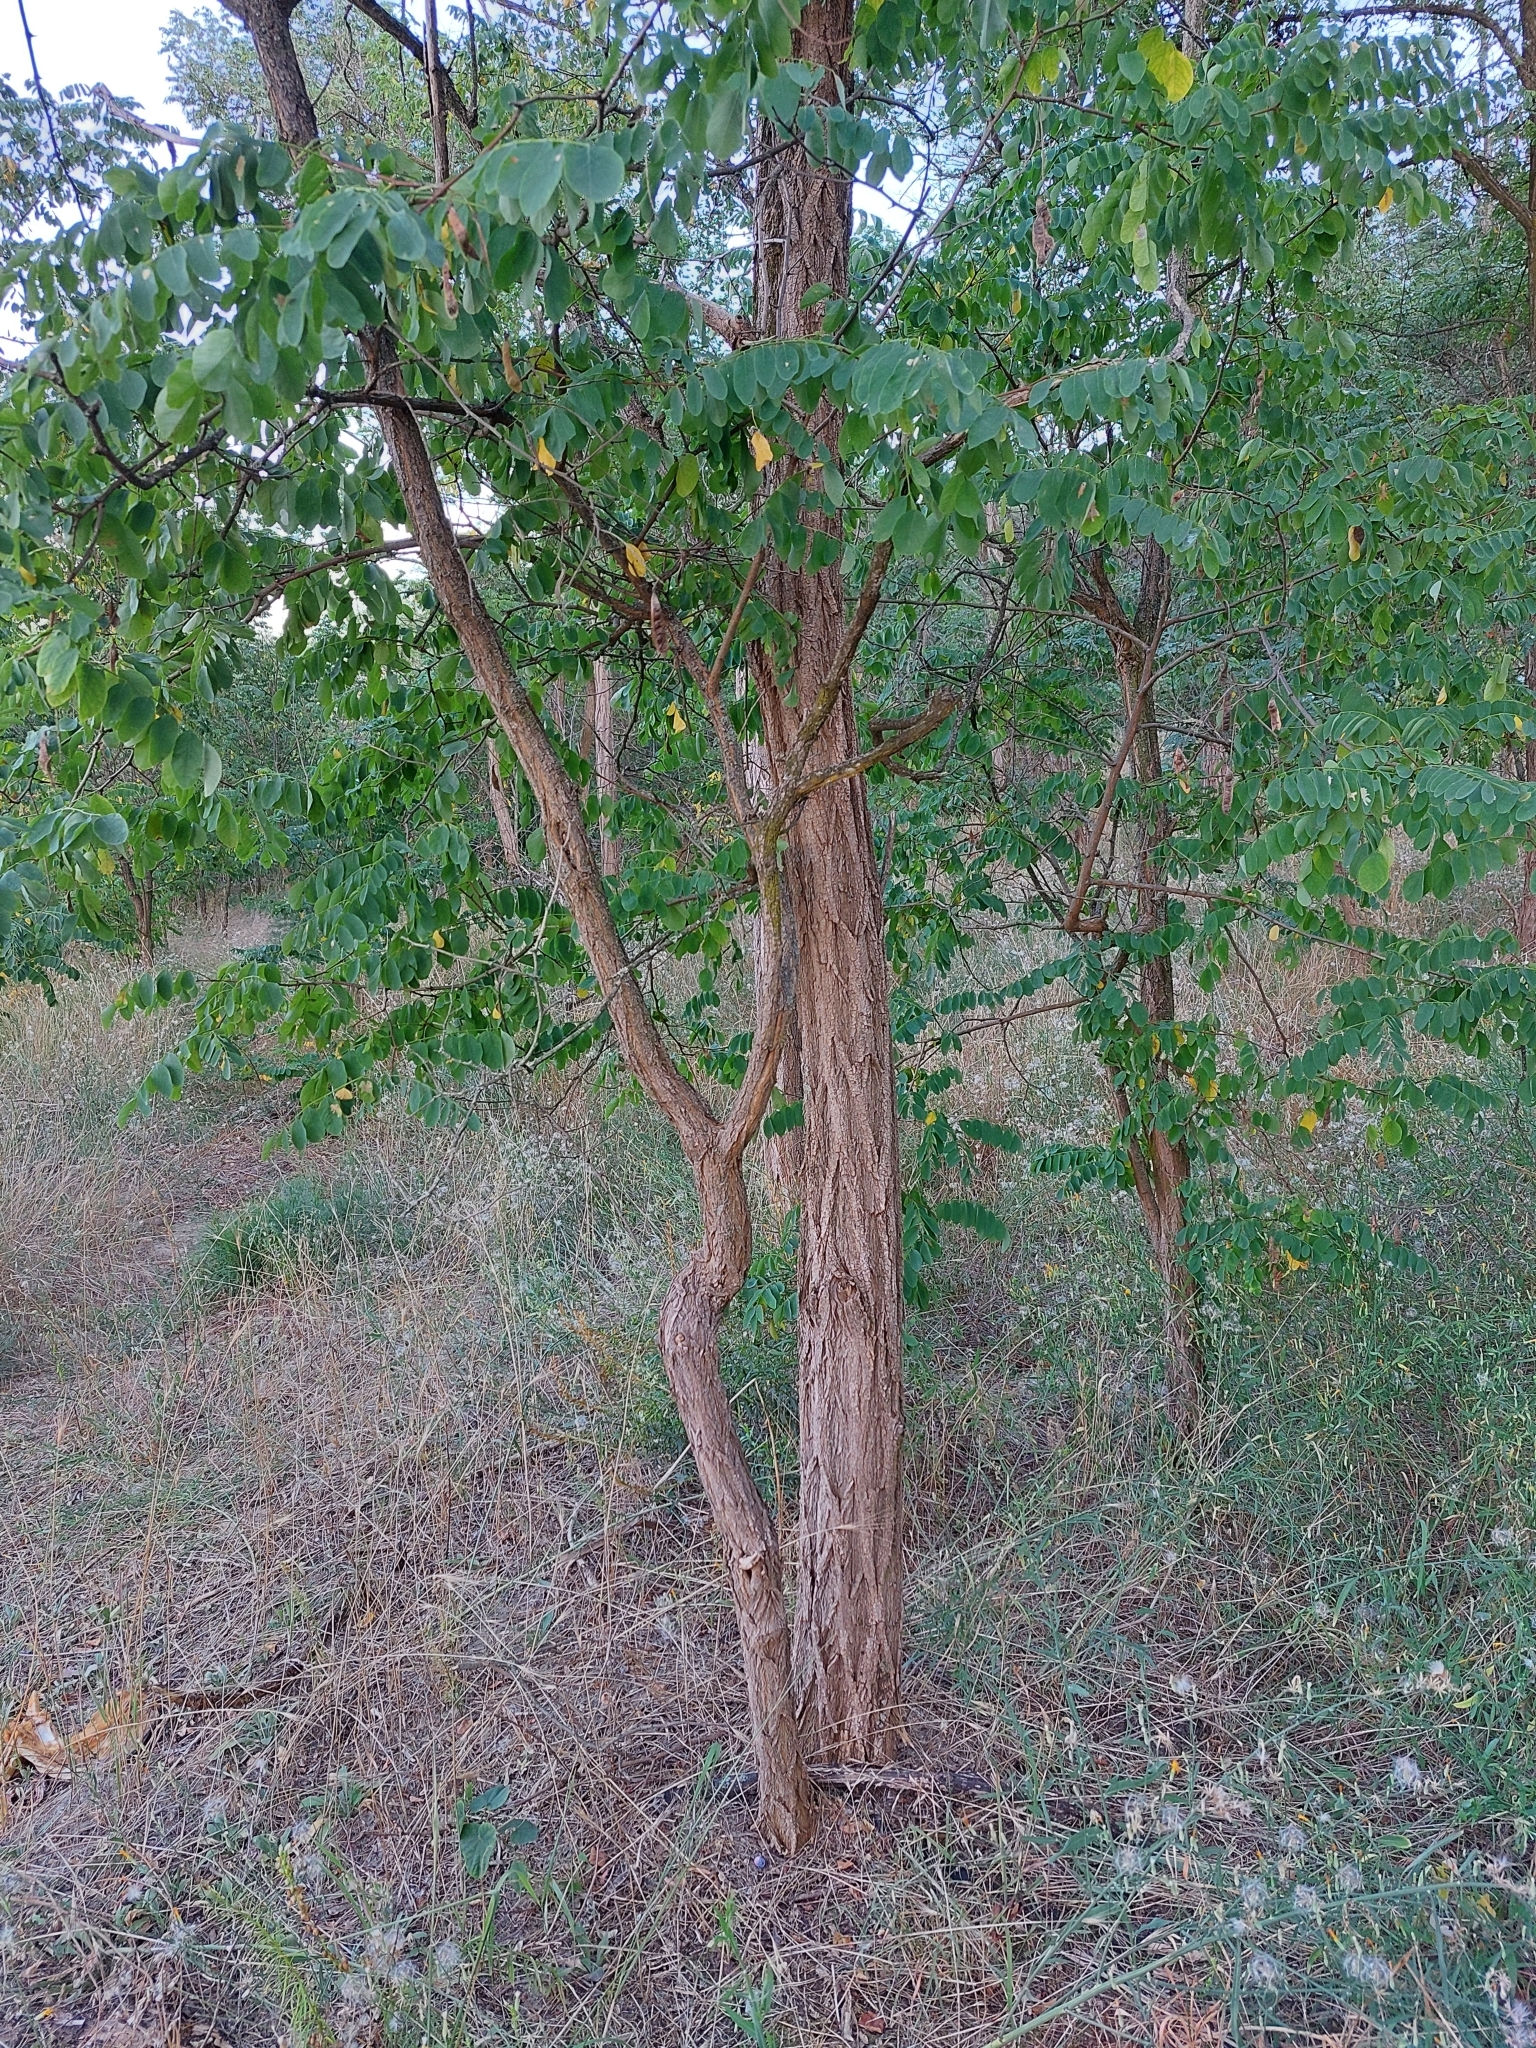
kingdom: Plantae
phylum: Tracheophyta
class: Magnoliopsida
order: Fabales
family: Fabaceae
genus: Robinia
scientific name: Robinia pseudoacacia
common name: Black locust
